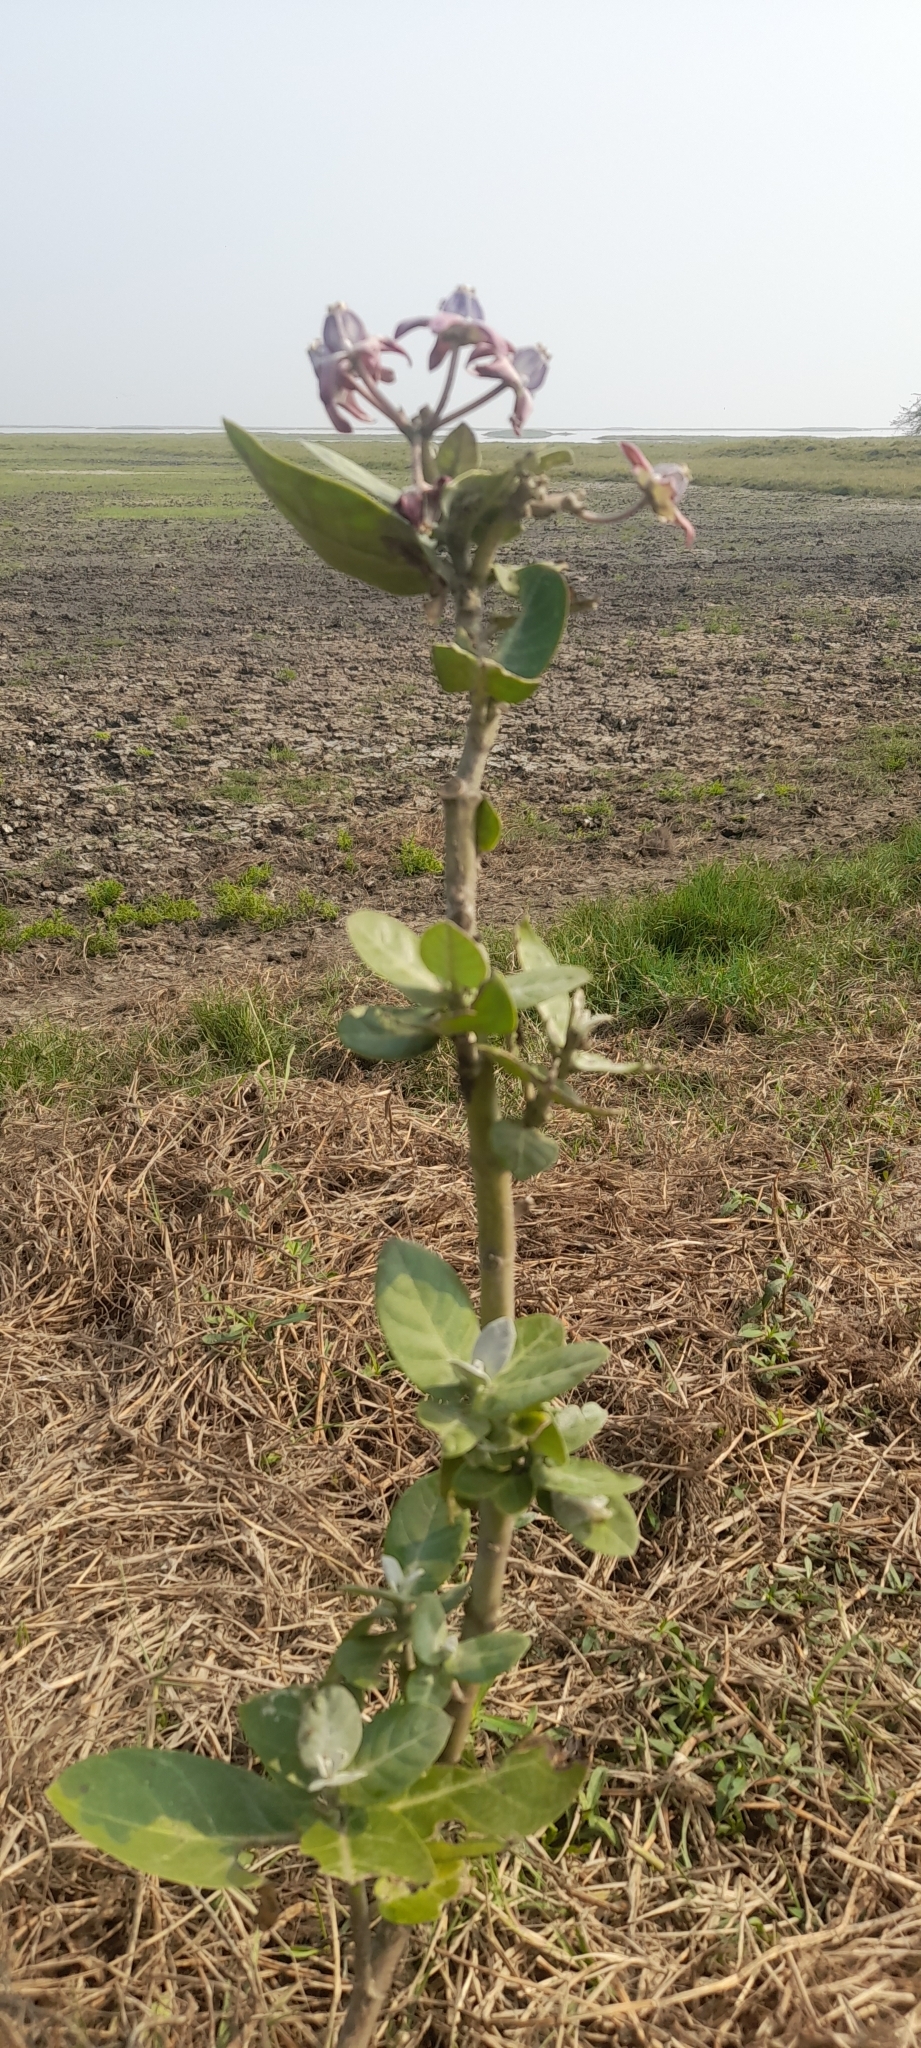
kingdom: Plantae
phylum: Tracheophyta
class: Magnoliopsida
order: Gentianales
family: Apocynaceae
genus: Calotropis
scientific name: Calotropis gigantea
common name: Crown flower
